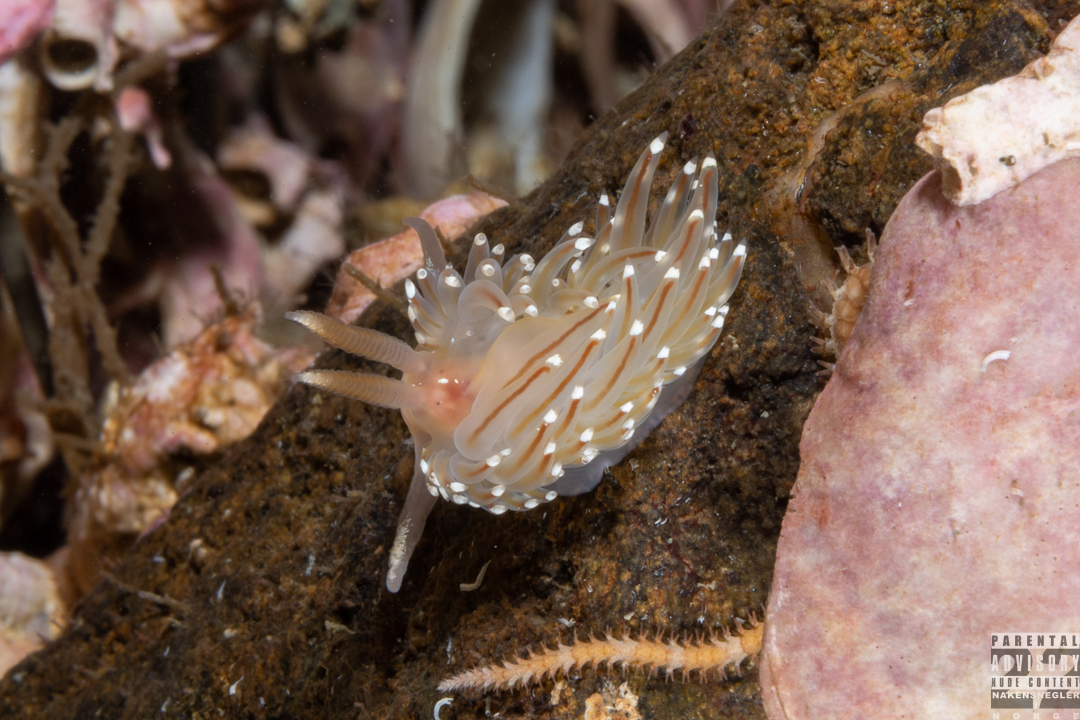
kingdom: Animalia
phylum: Mollusca
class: Gastropoda
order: Nudibranchia
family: Facelinidae
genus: Facelina
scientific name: Facelina bostoniensis
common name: Boston facelina
